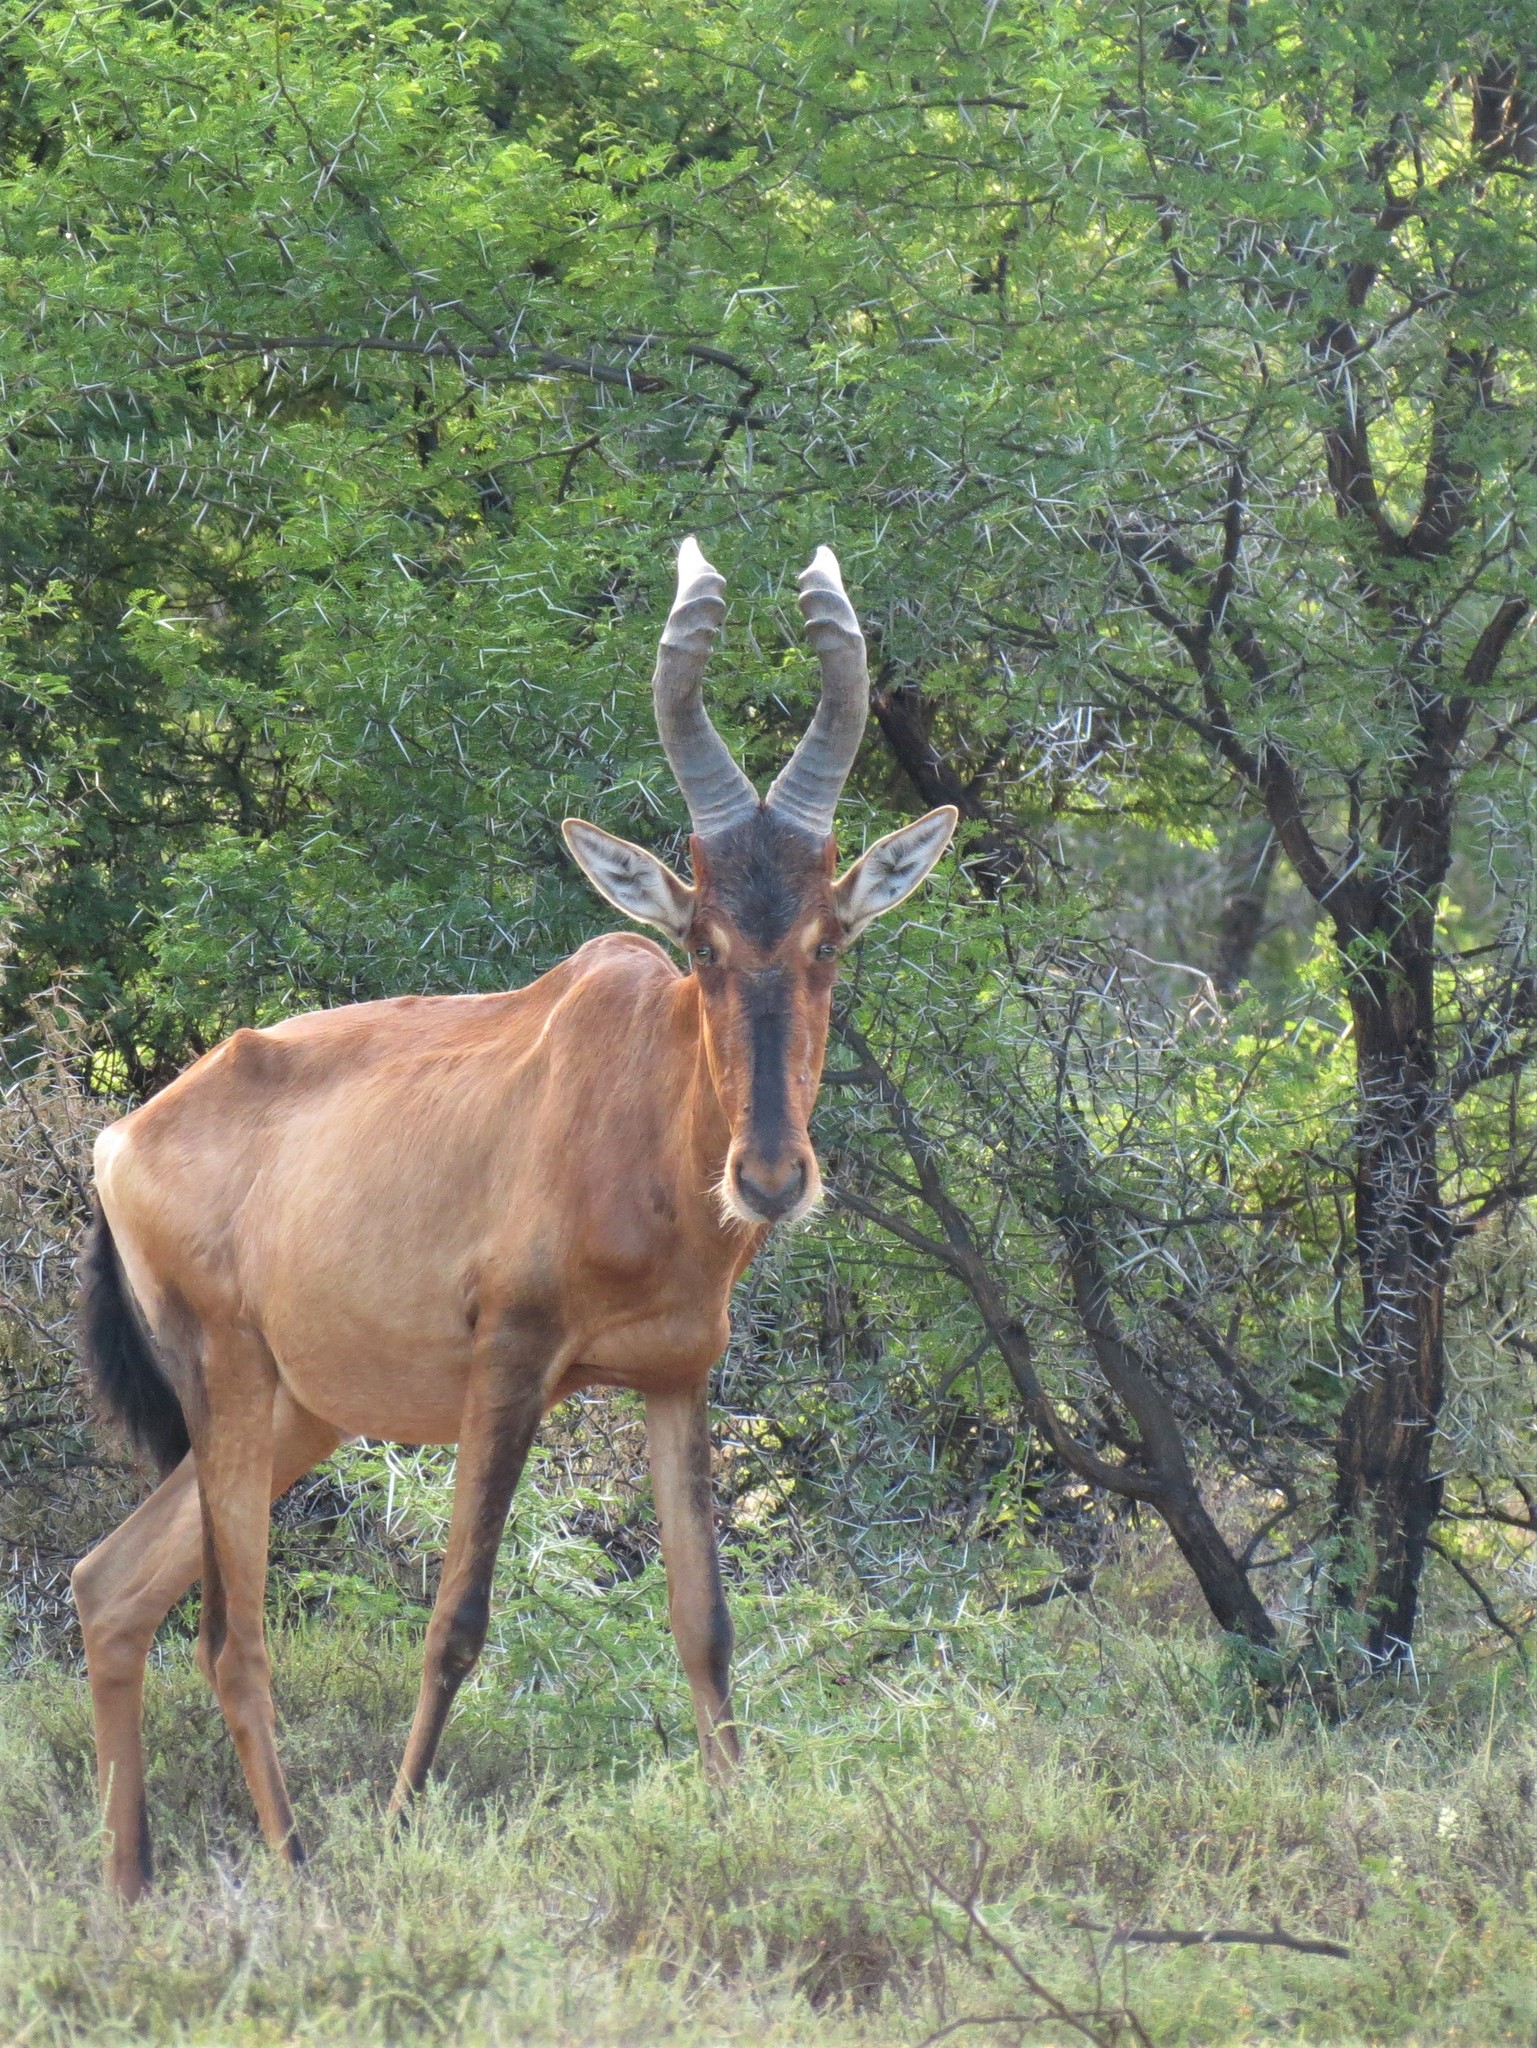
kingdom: Animalia
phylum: Chordata
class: Mammalia
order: Artiodactyla
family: Bovidae
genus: Alcelaphus
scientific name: Alcelaphus caama
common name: Red hartebeest
